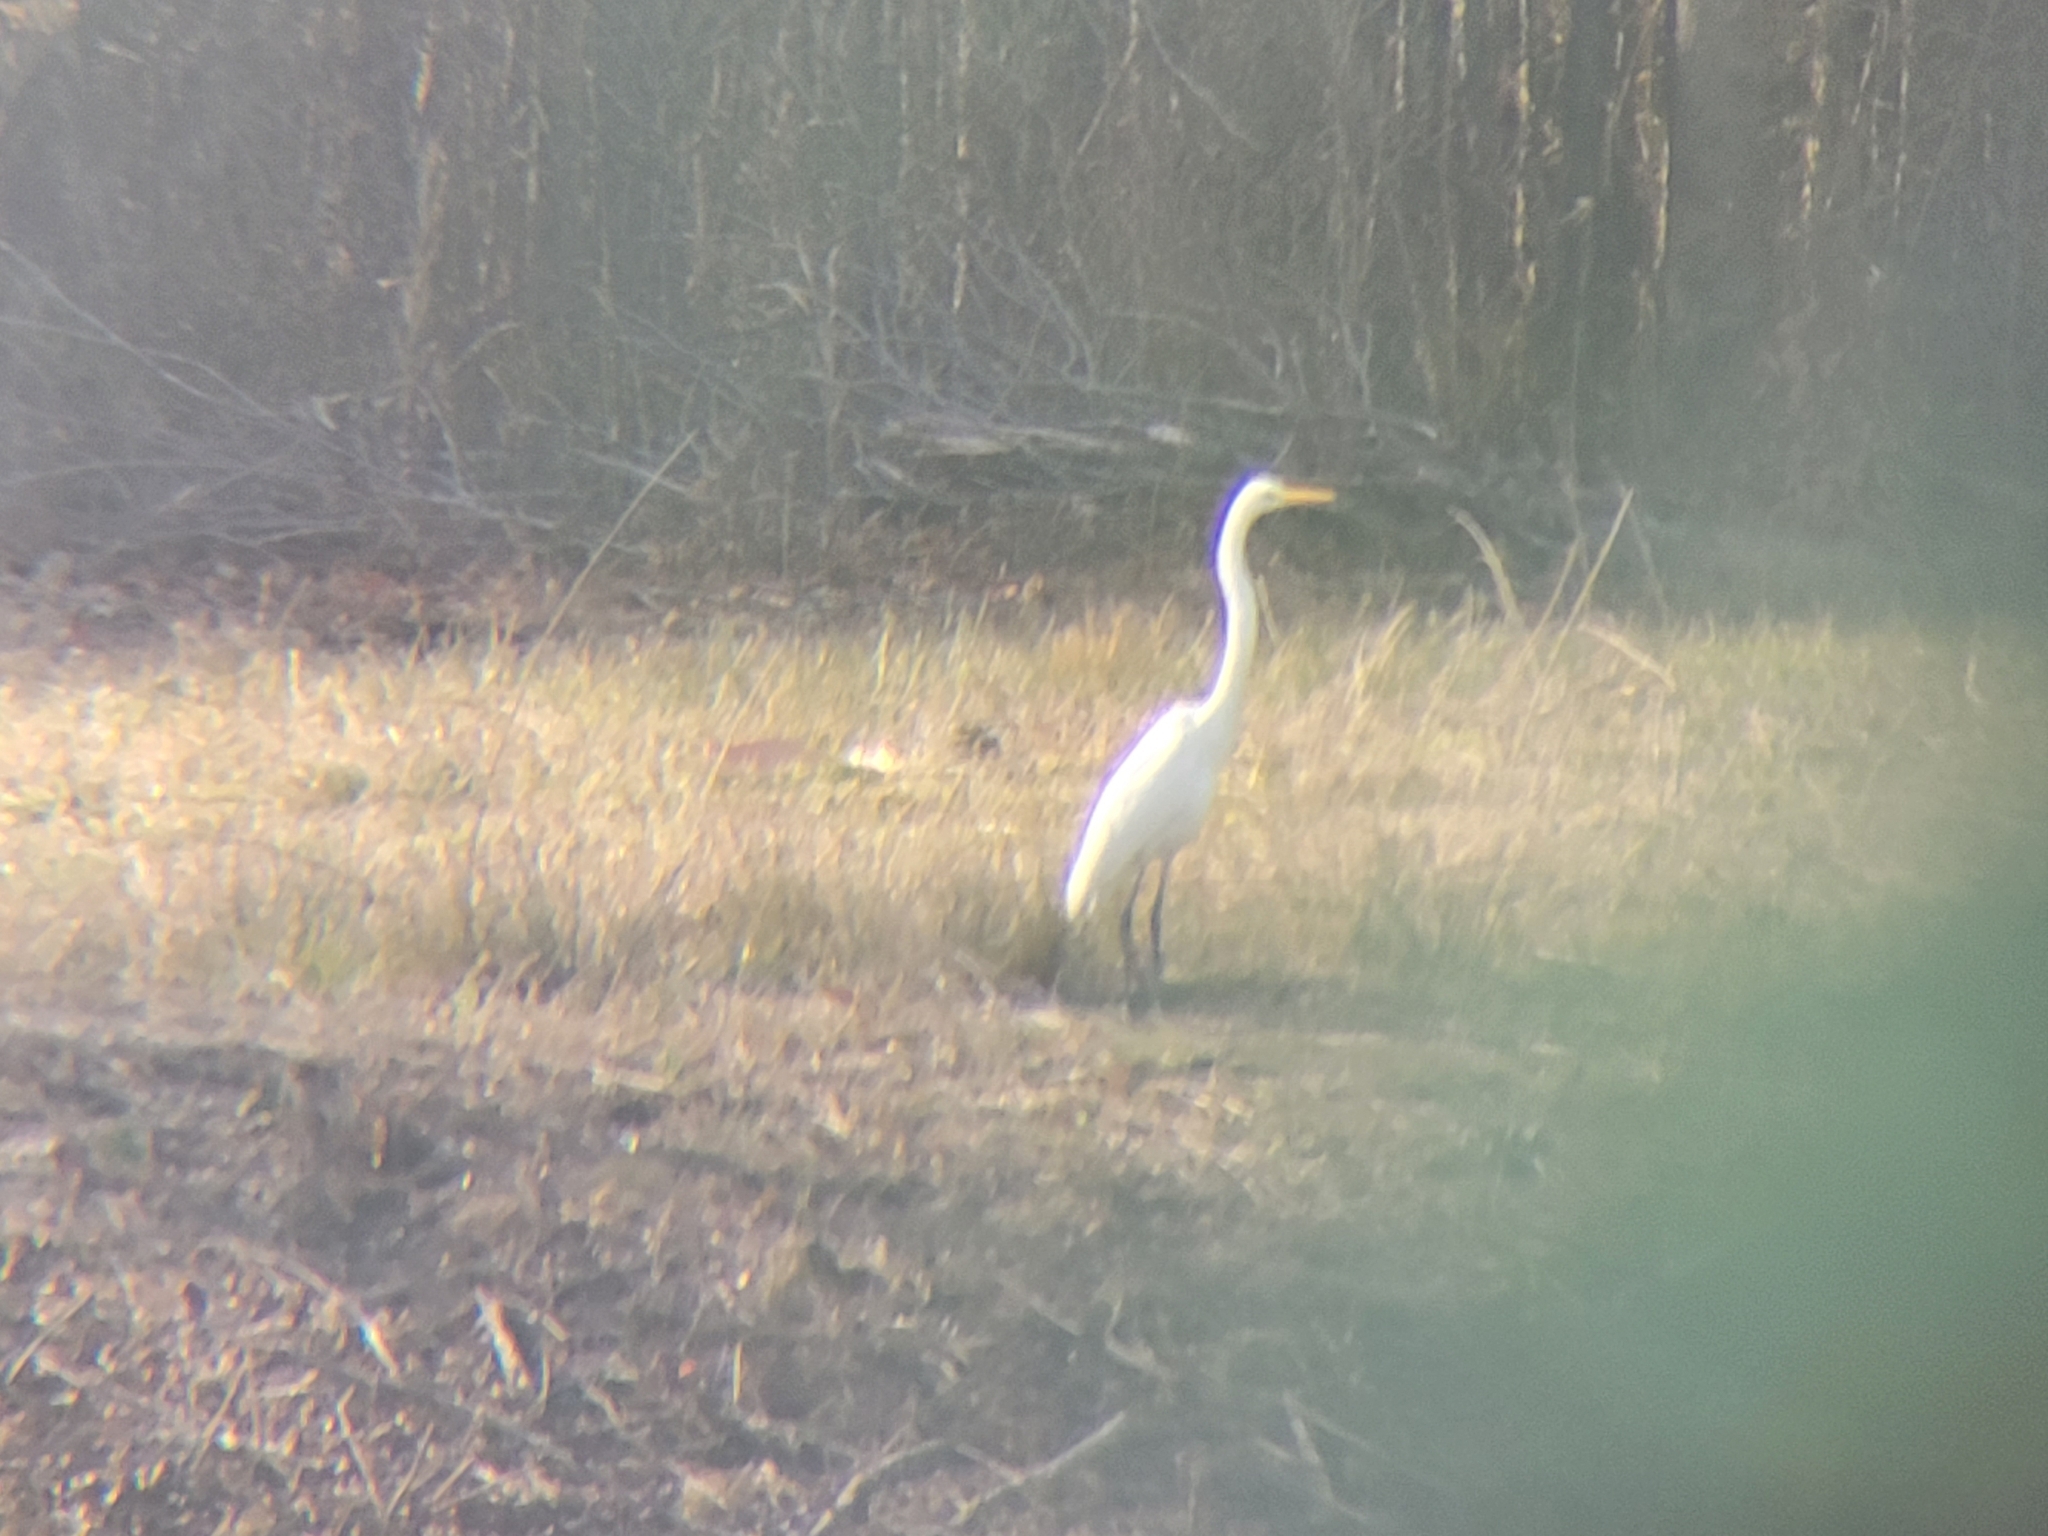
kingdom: Animalia
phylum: Chordata
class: Aves
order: Pelecaniformes
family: Ardeidae
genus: Ardea
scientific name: Ardea alba
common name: Great egret
